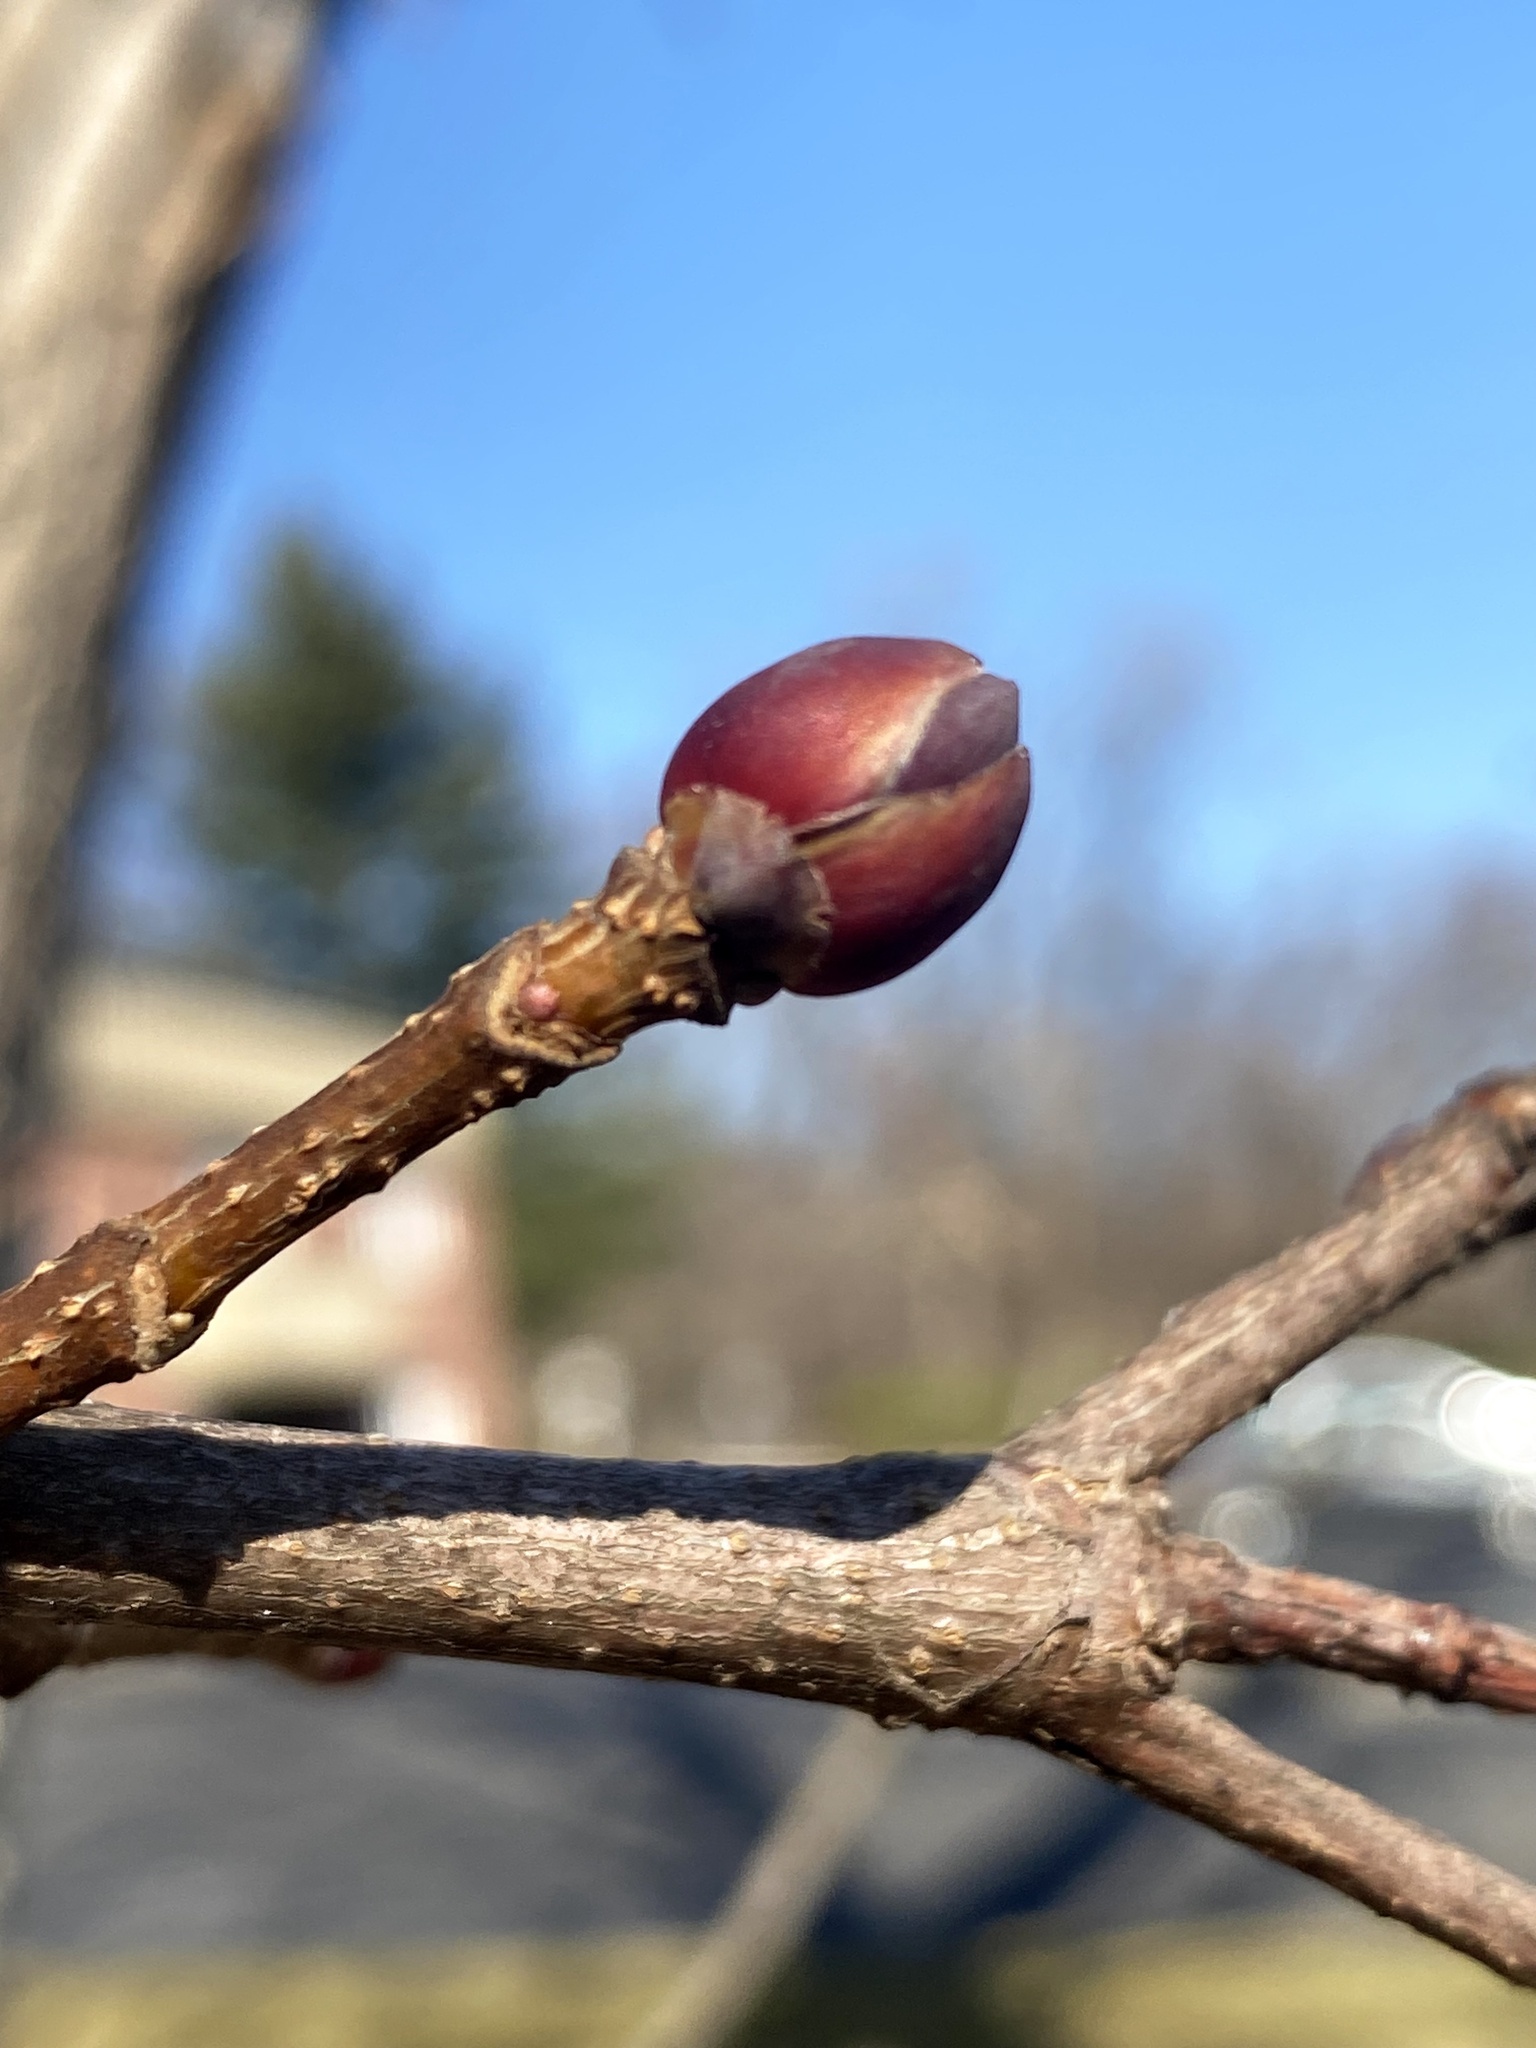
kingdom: Plantae
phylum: Tracheophyta
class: Magnoliopsida
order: Sapindales
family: Sapindaceae
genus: Acer
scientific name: Acer platanoides
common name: Norway maple
